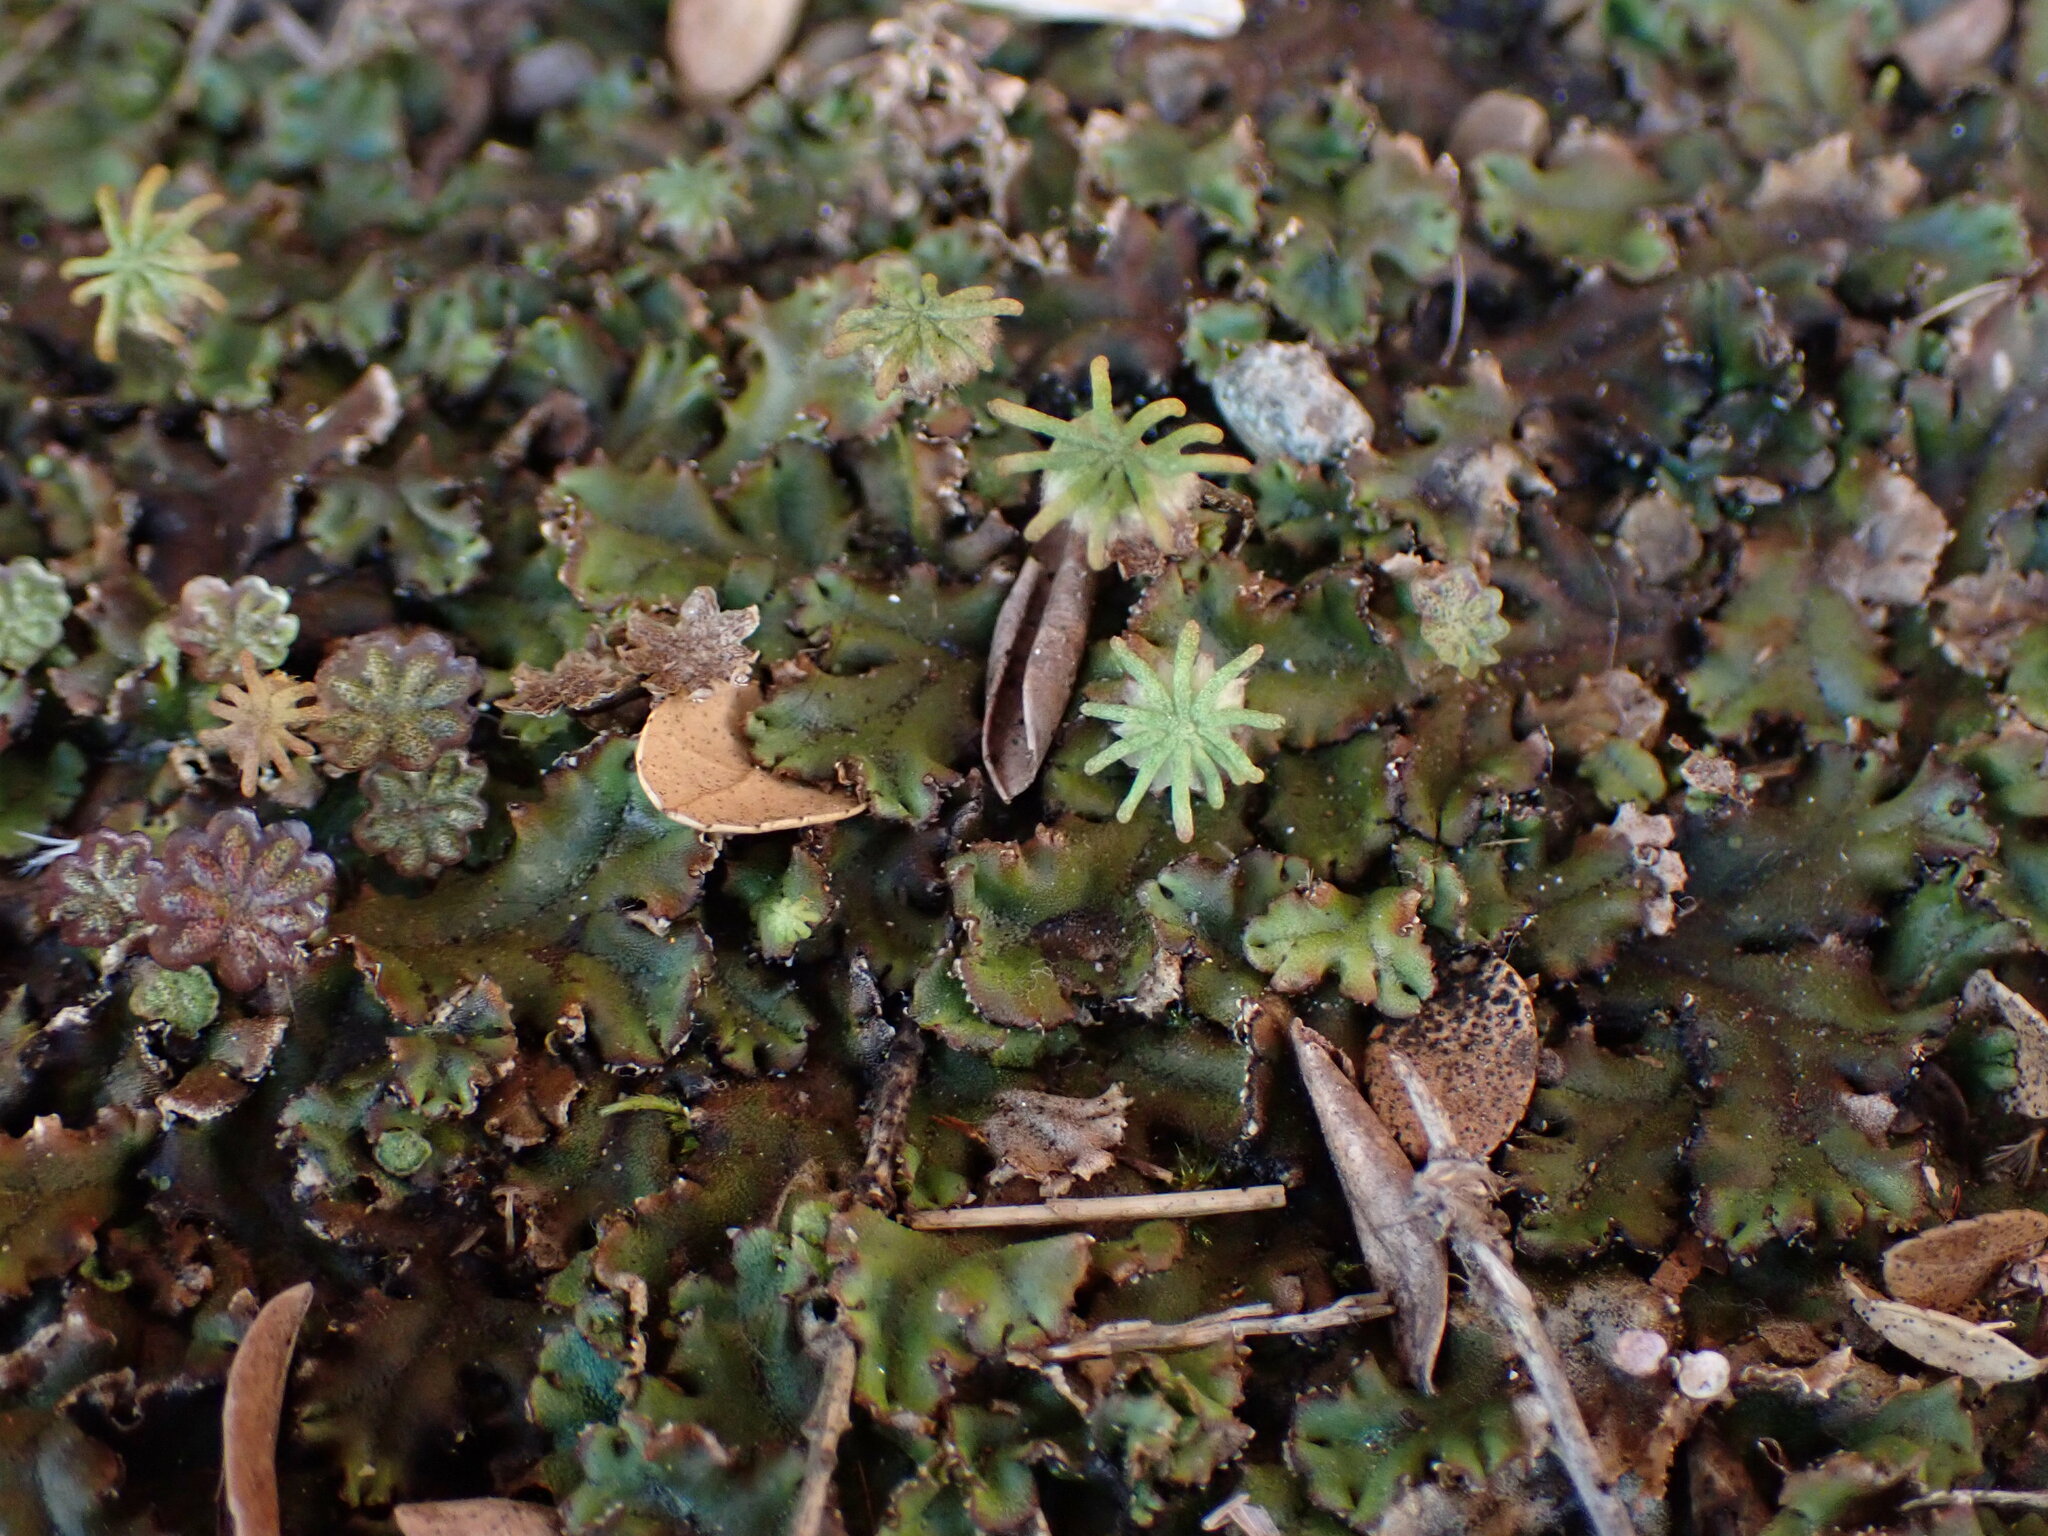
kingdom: Plantae
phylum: Marchantiophyta
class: Marchantiopsida
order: Marchantiales
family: Marchantiaceae
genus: Marchantia
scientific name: Marchantia polymorpha
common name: Common liverwort
